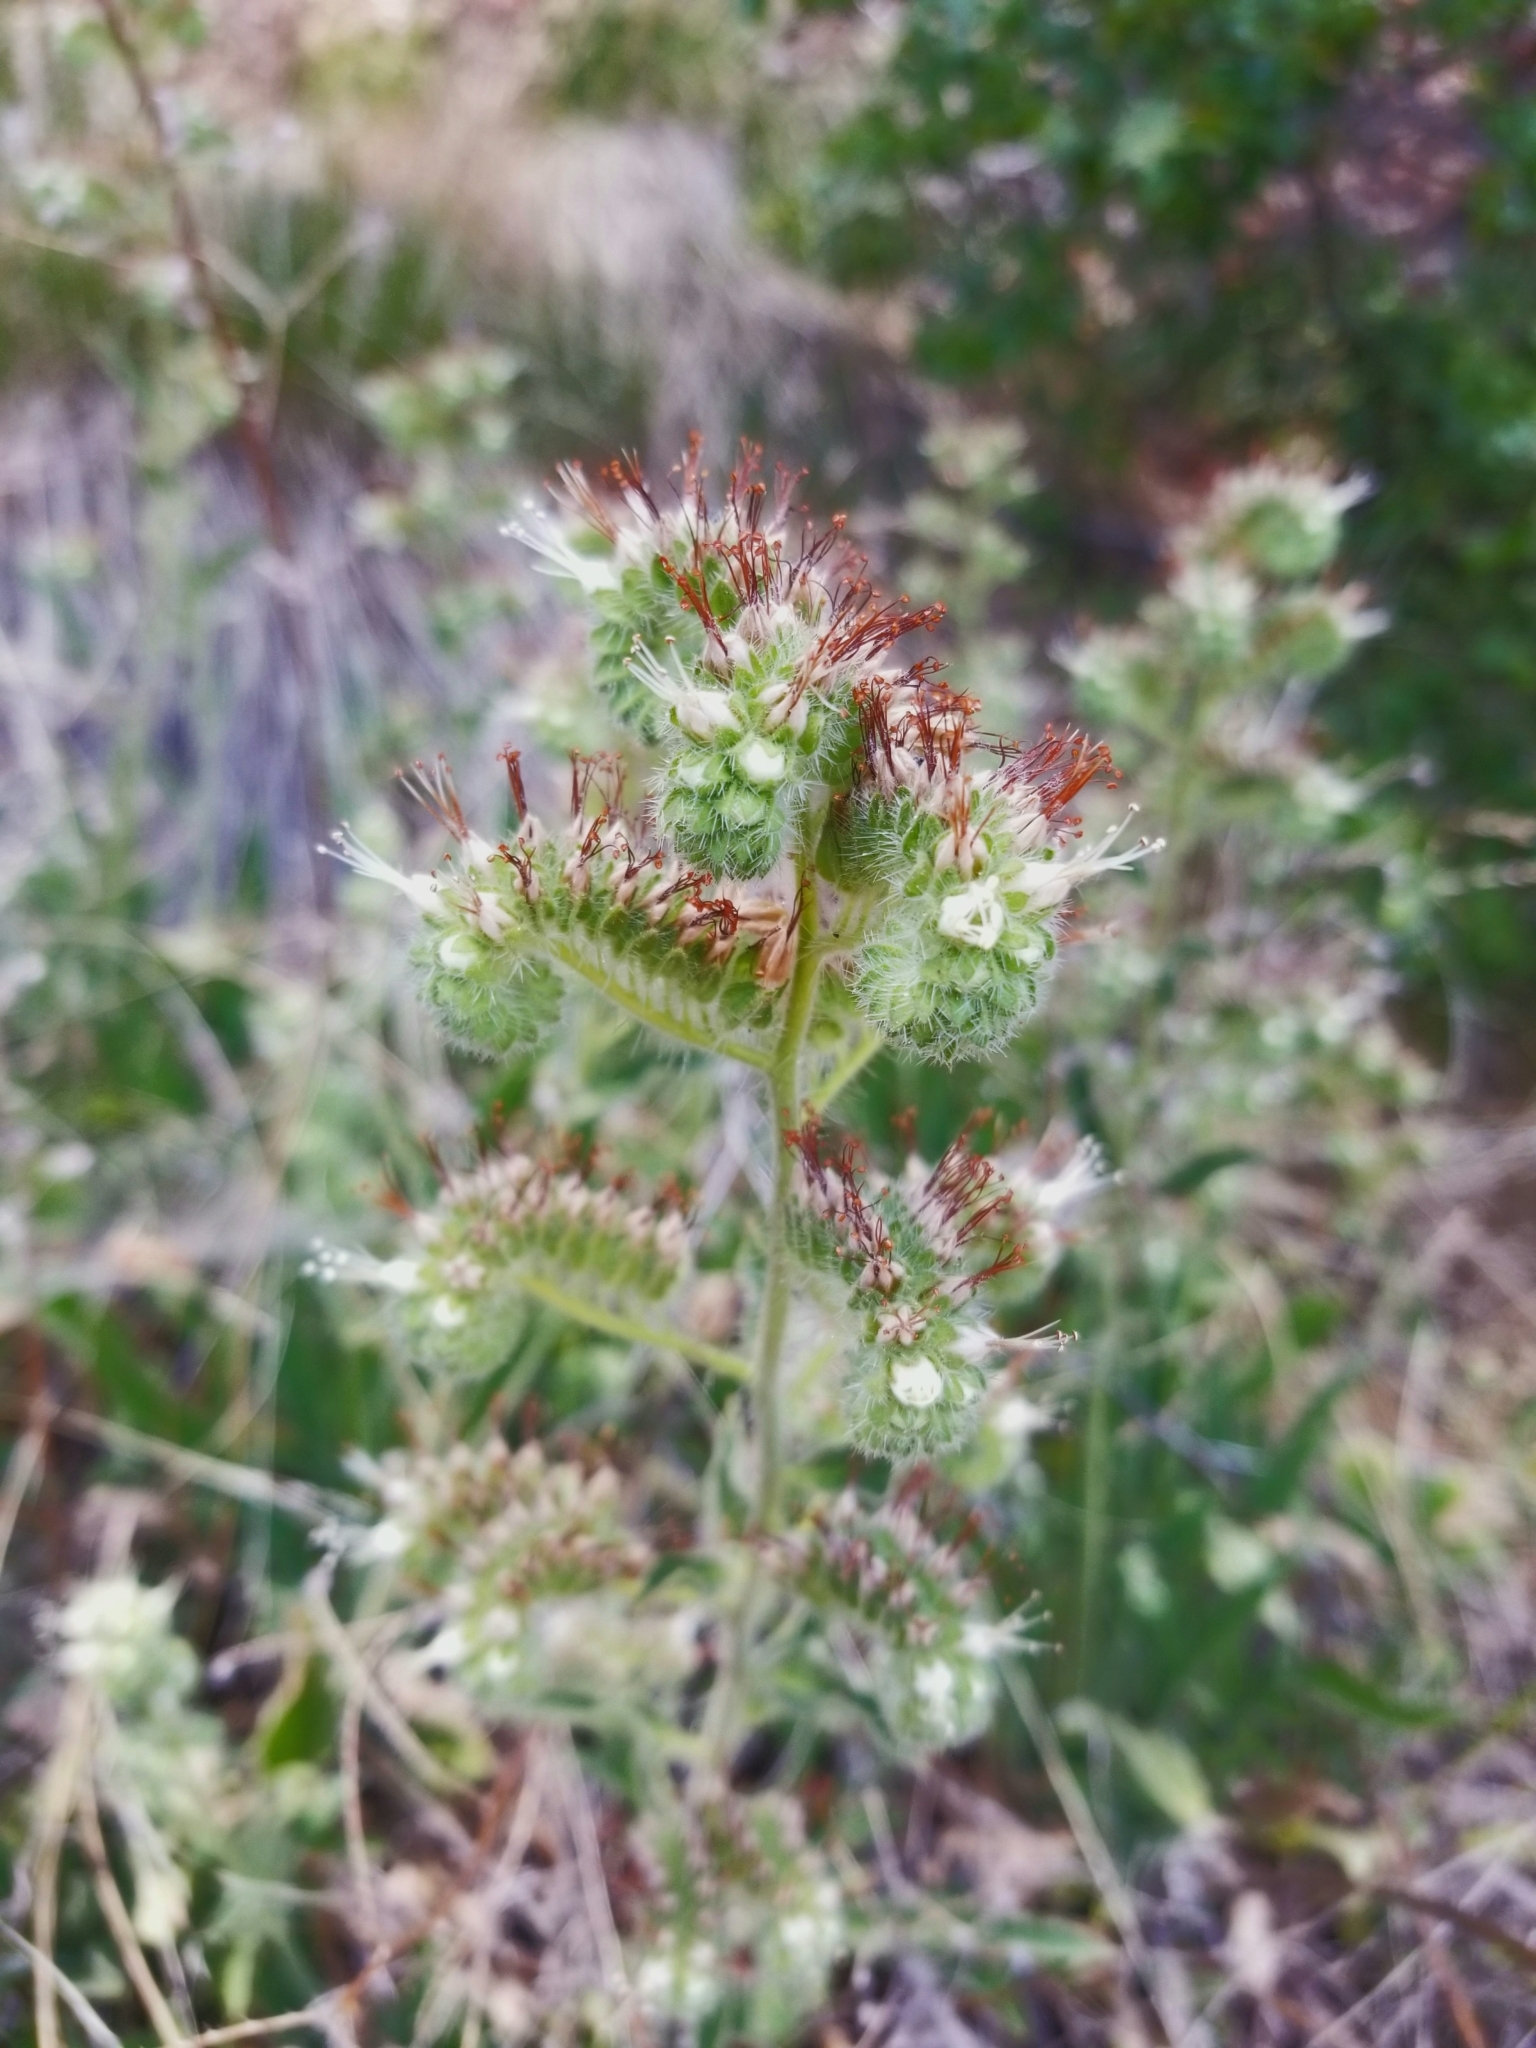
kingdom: Plantae
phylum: Tracheophyta
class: Magnoliopsida
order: Boraginales
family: Hydrophyllaceae
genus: Phacelia
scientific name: Phacelia imbricata
